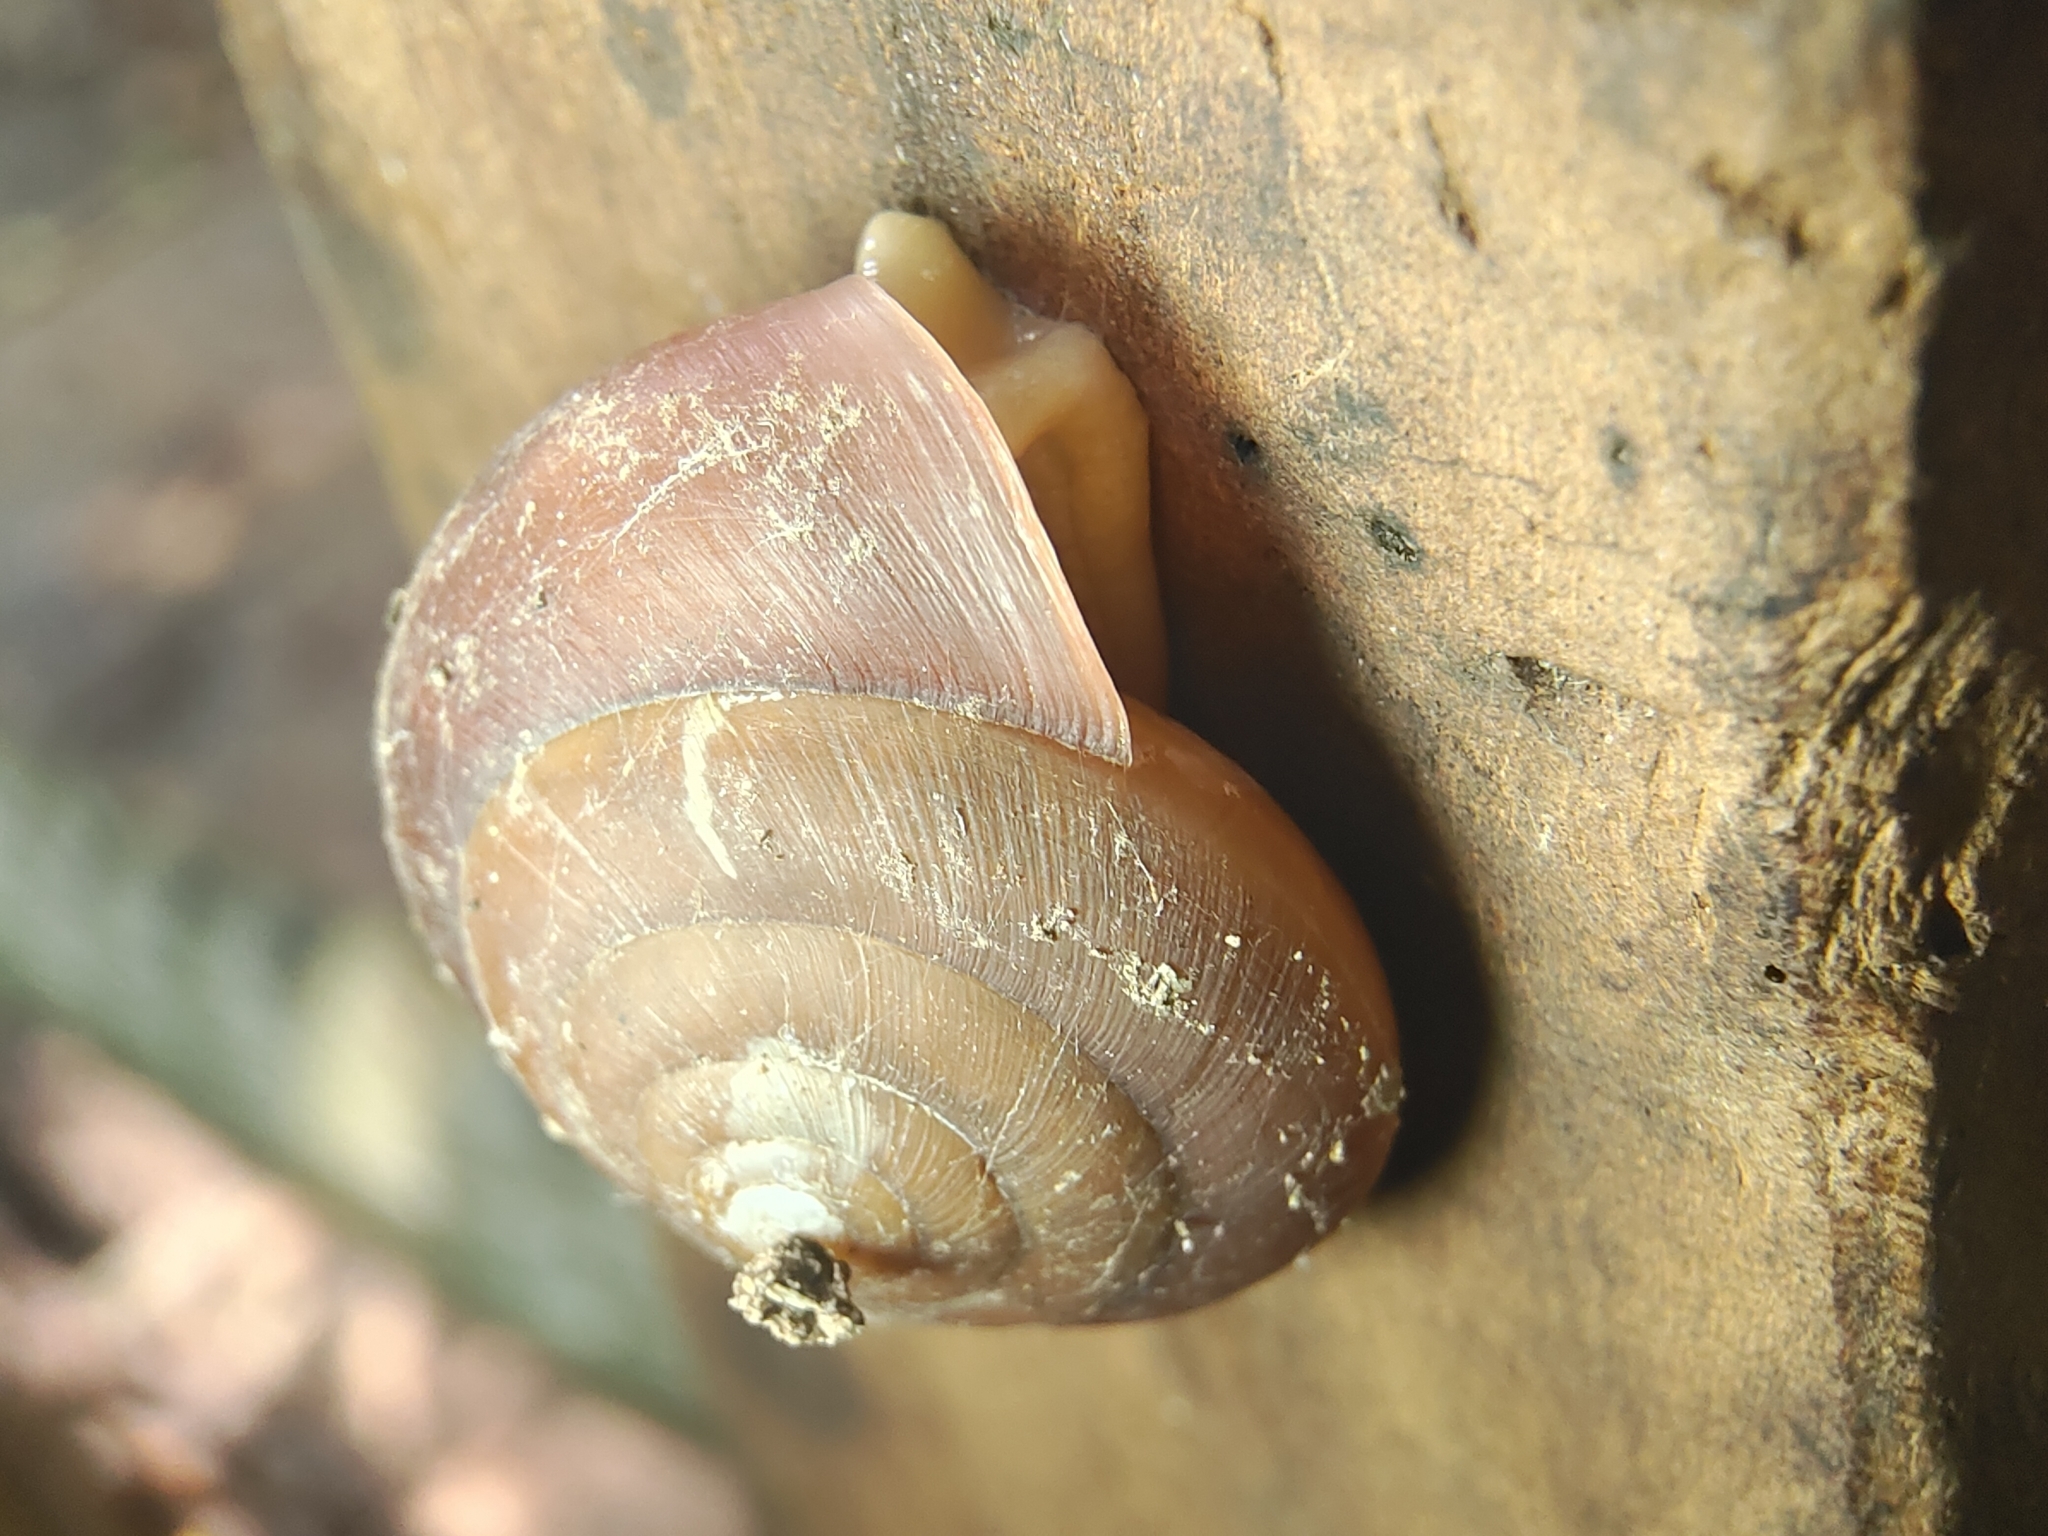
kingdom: Animalia
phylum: Mollusca
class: Gastropoda
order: Stylommatophora
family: Dyakiidae
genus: Quantula
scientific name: Quantula striata
